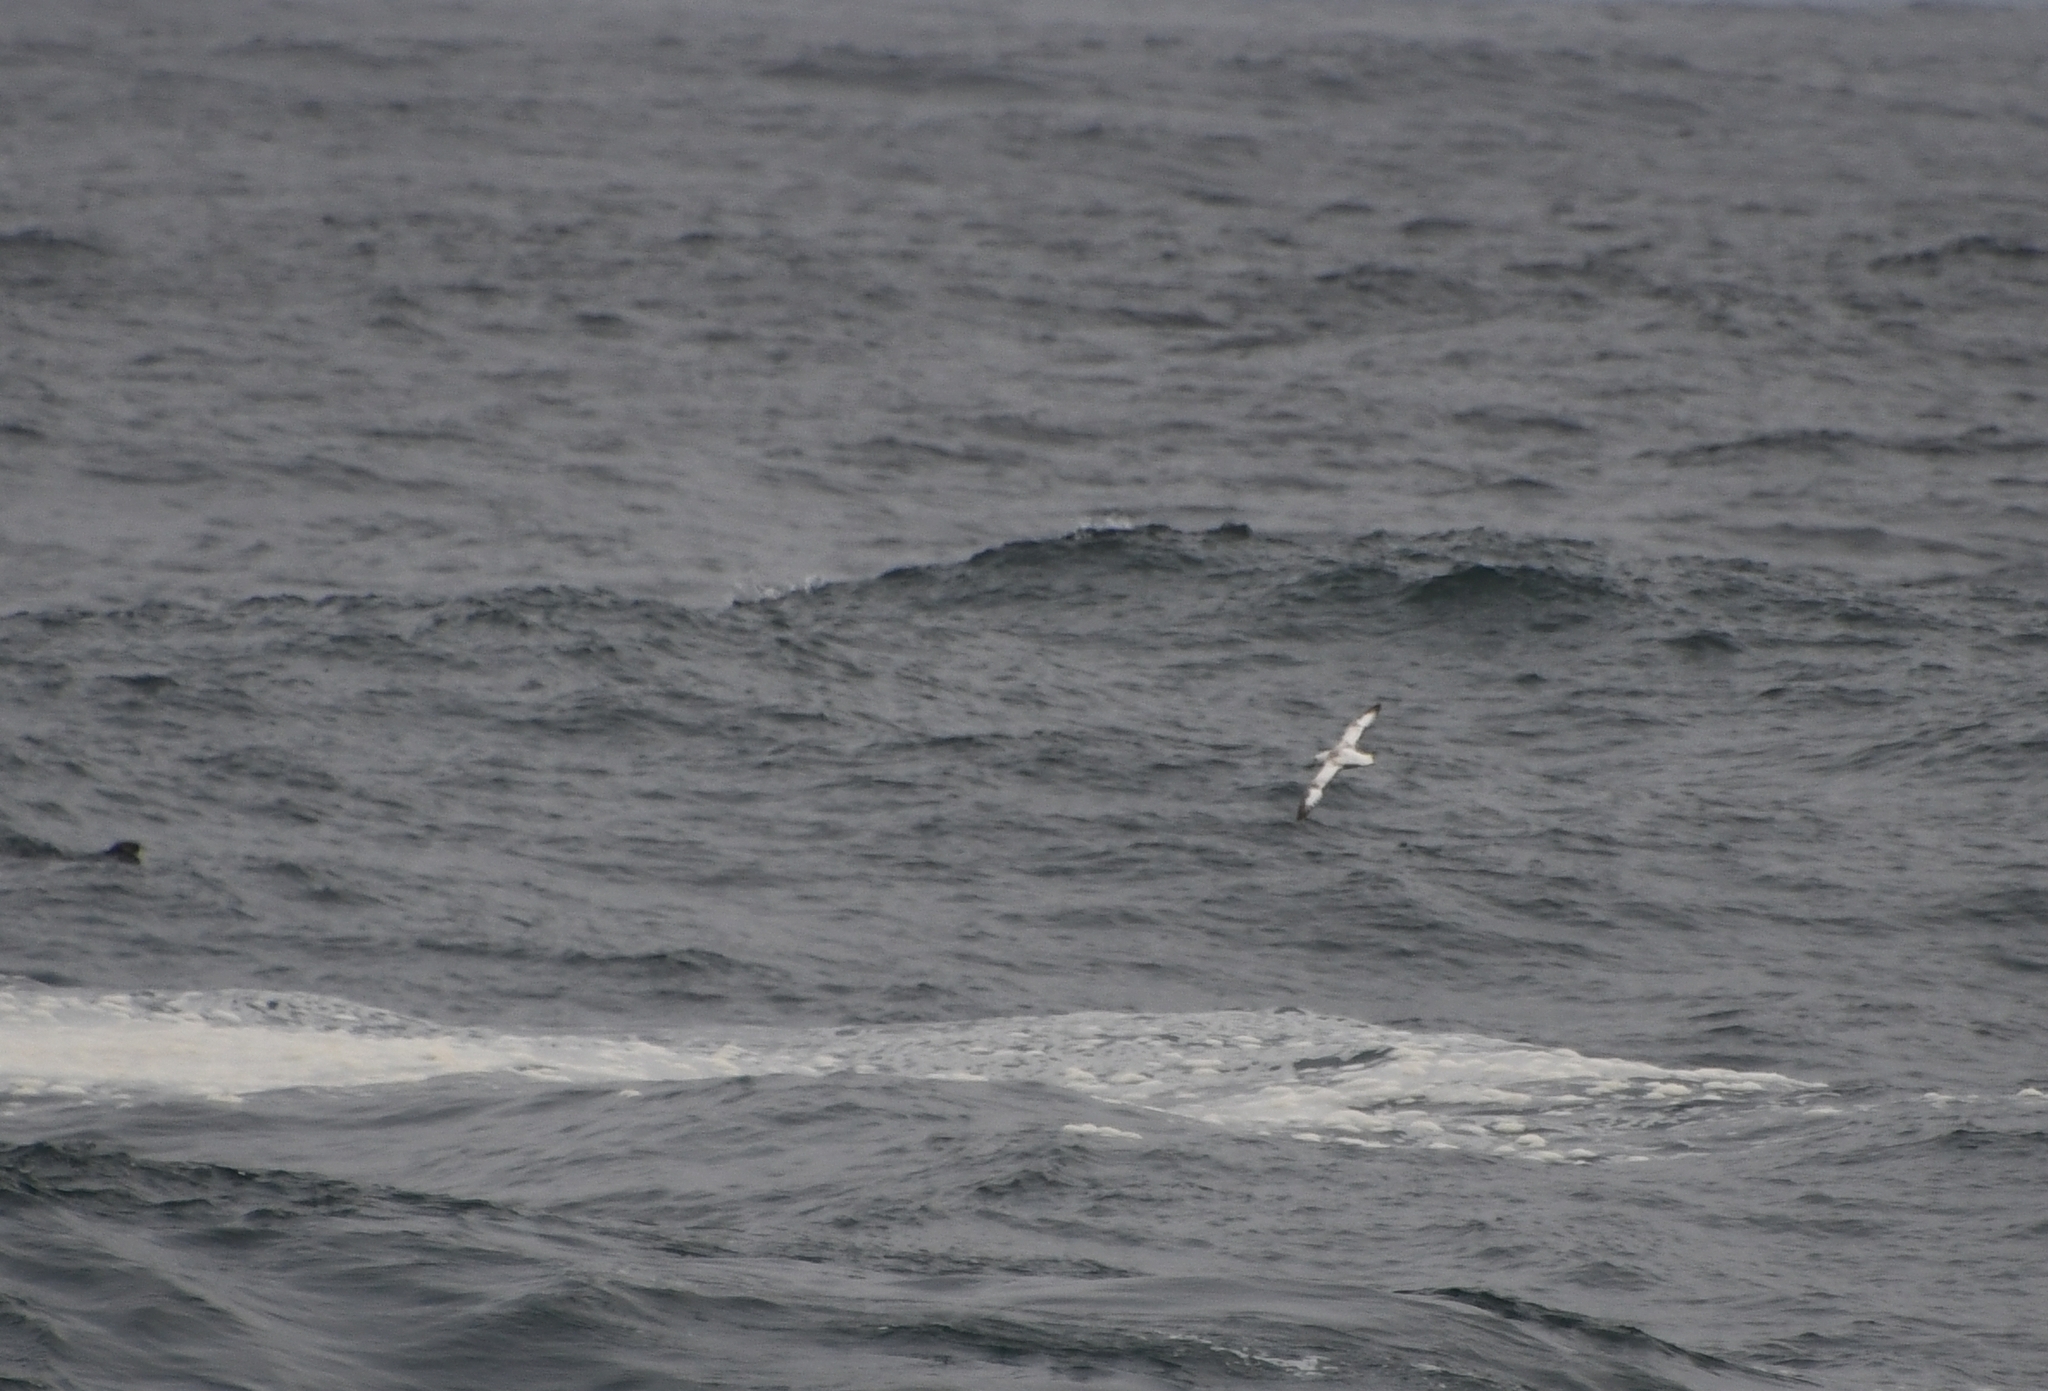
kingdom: Animalia
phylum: Chordata
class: Aves
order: Procellariiformes
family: Procellariidae
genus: Fulmarus
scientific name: Fulmarus glacialis
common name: Northern fulmar
